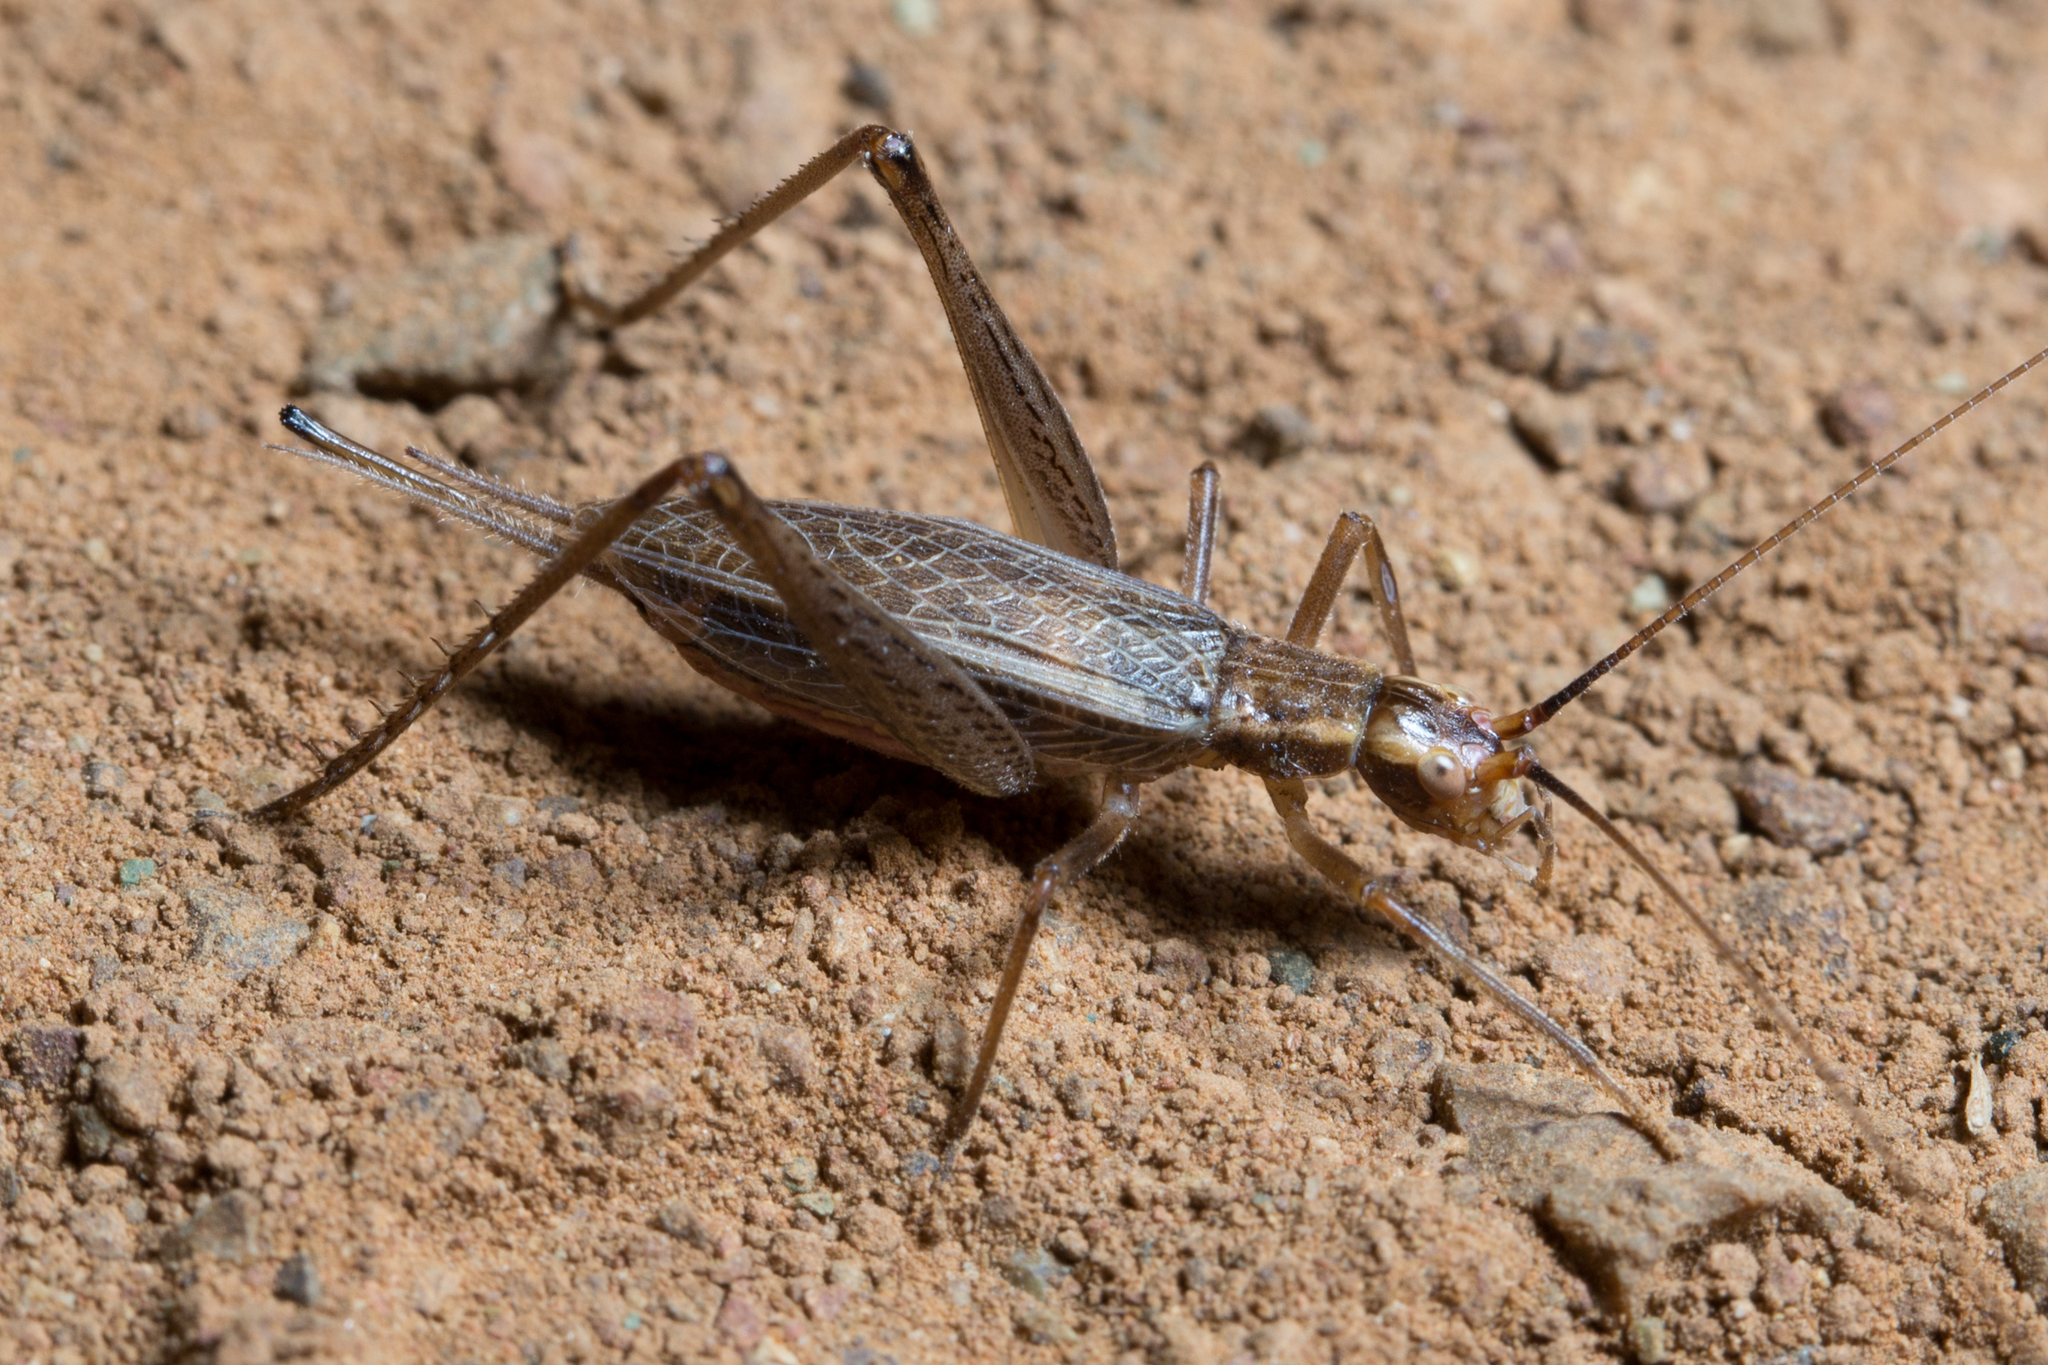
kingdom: Animalia
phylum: Arthropoda
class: Insecta
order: Orthoptera
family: Gryllidae
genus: Oecanthus
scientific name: Oecanthus californicus
